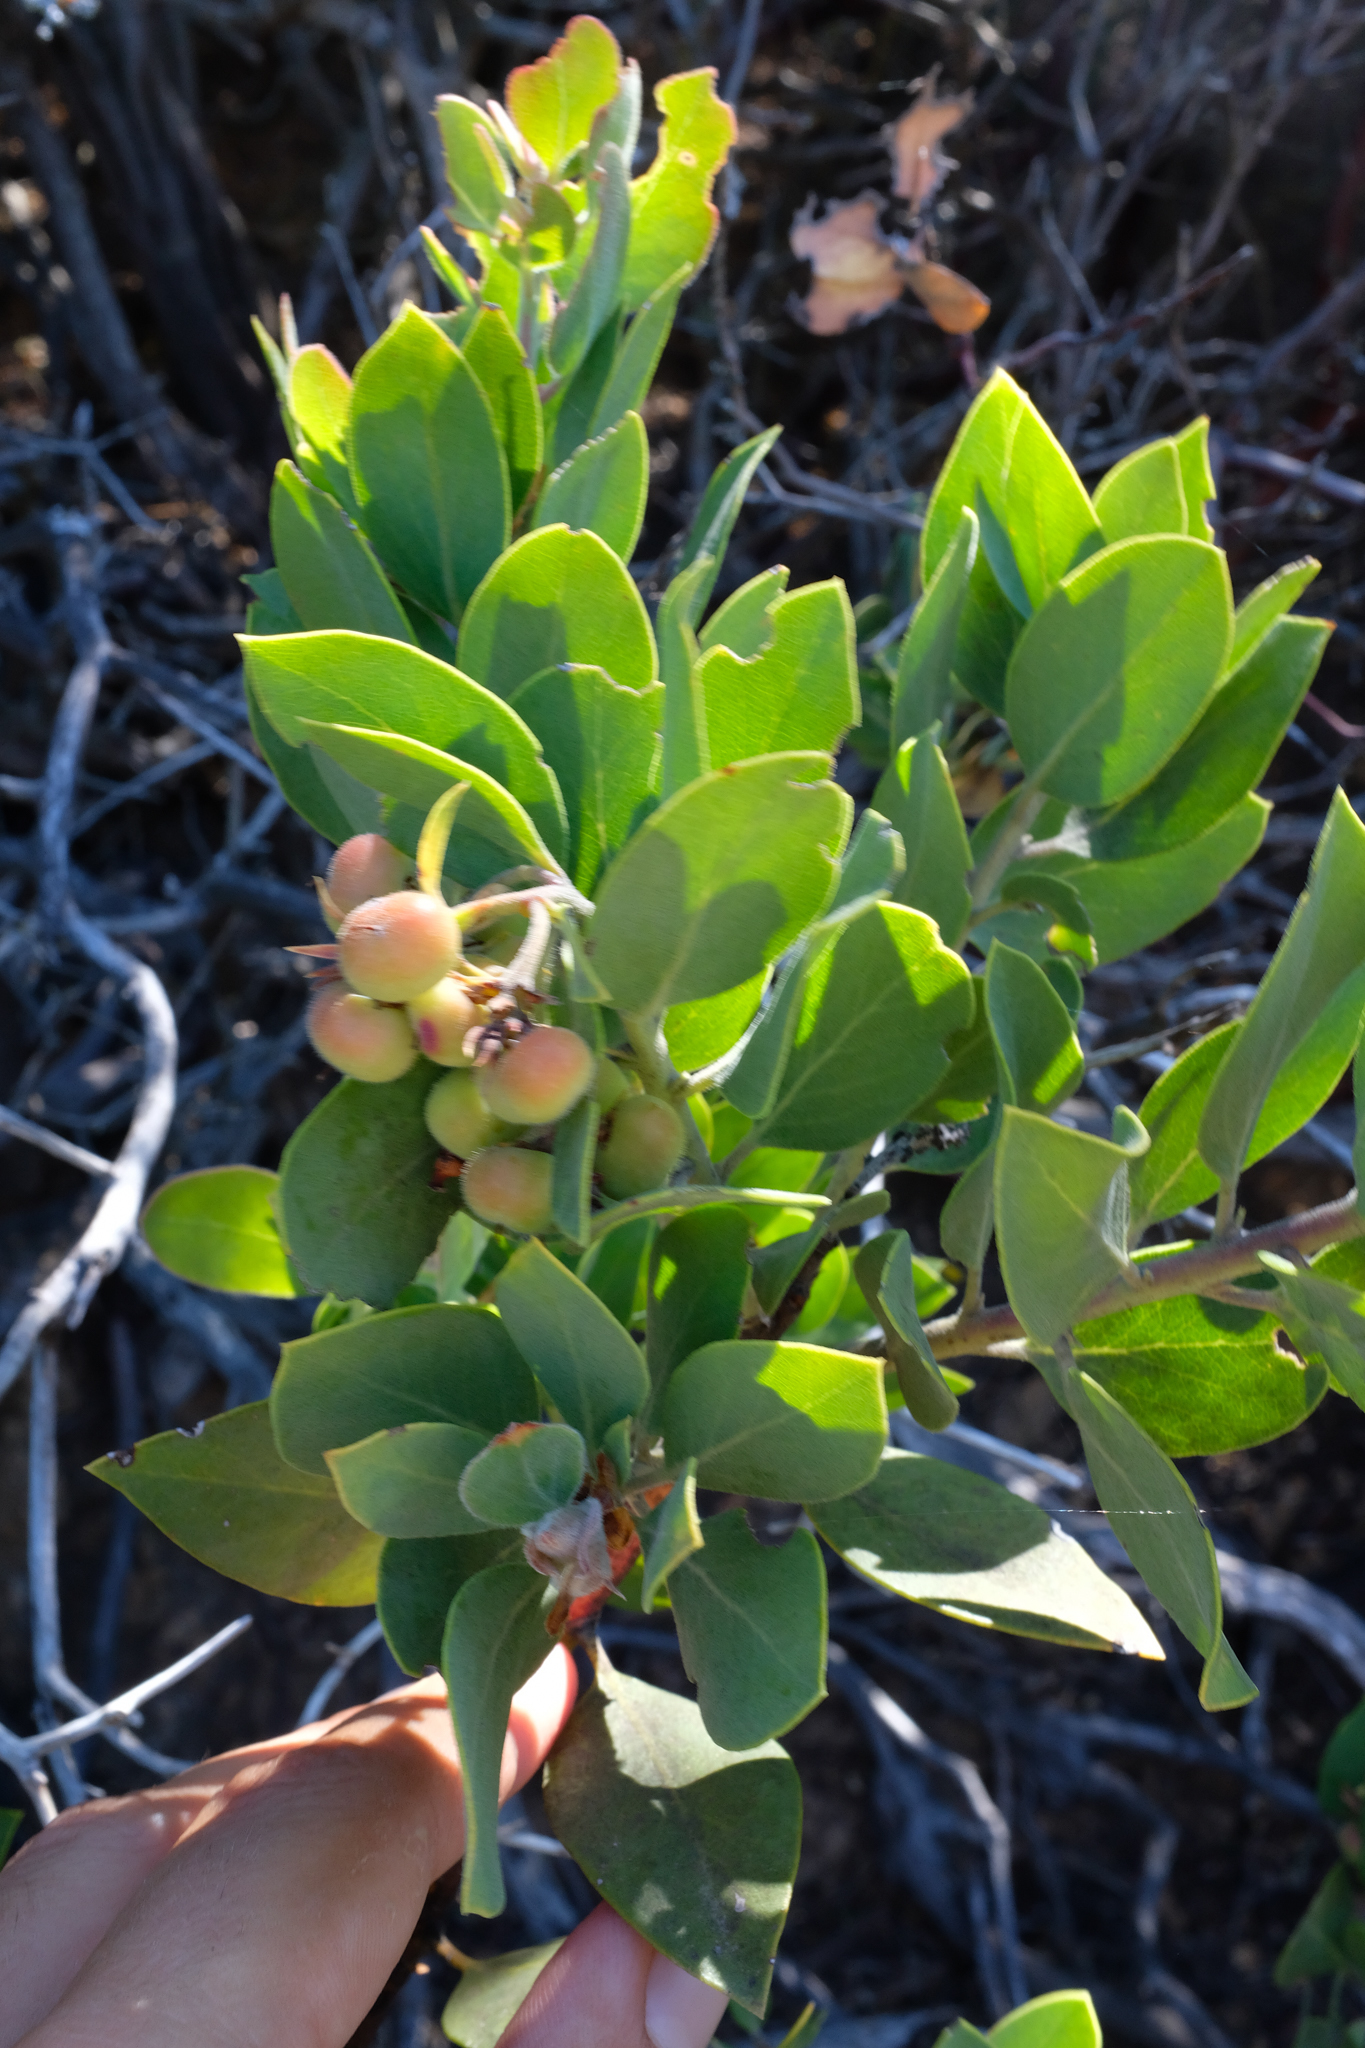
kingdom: Plantae
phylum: Tracheophyta
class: Magnoliopsida
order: Ericales
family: Ericaceae
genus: Arctostaphylos
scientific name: Arctostaphylos glandulosa
